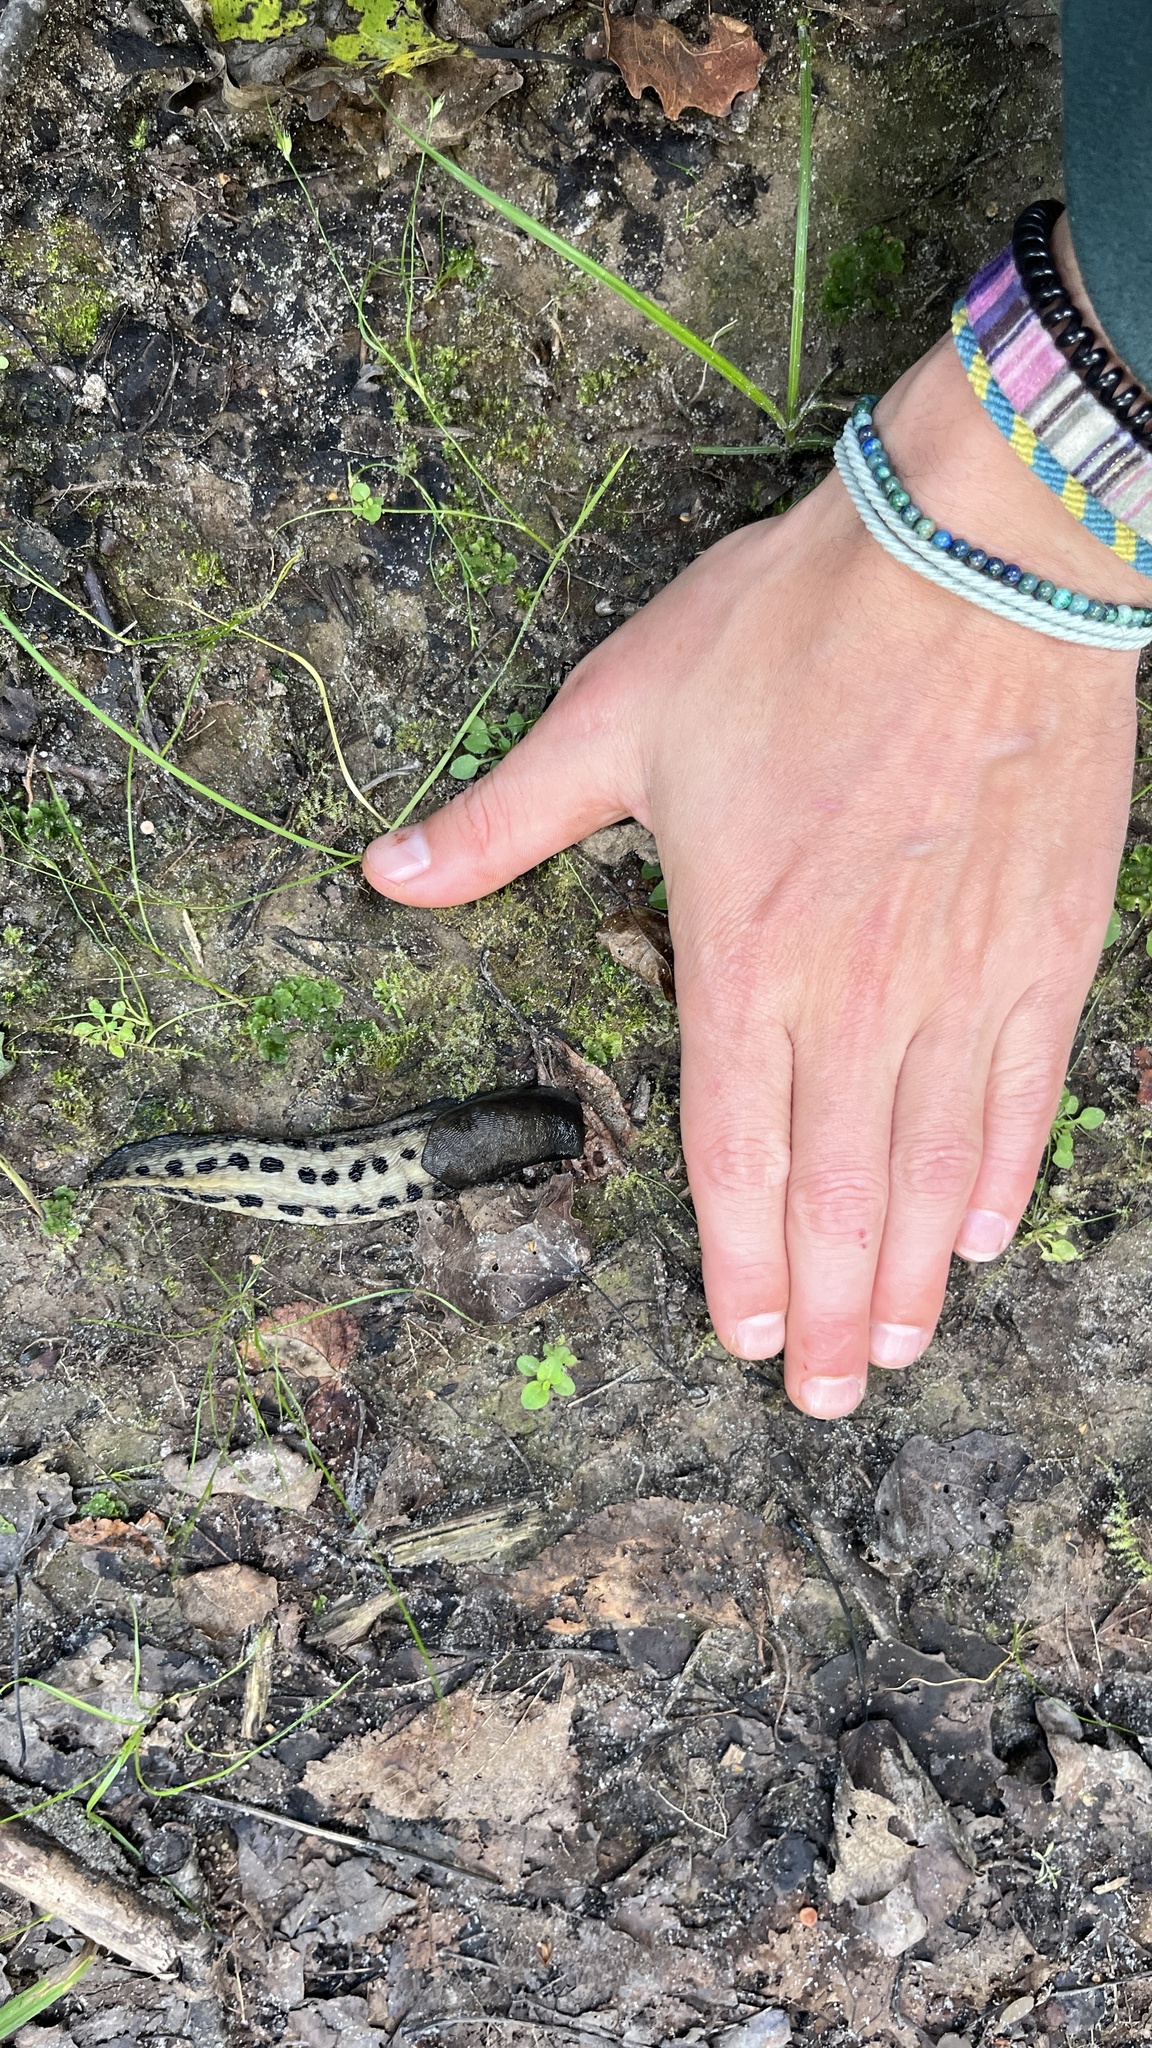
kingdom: Animalia
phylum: Mollusca
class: Gastropoda
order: Stylommatophora
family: Limacidae
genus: Limax
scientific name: Limax cinereoniger
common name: Ash-black slug
